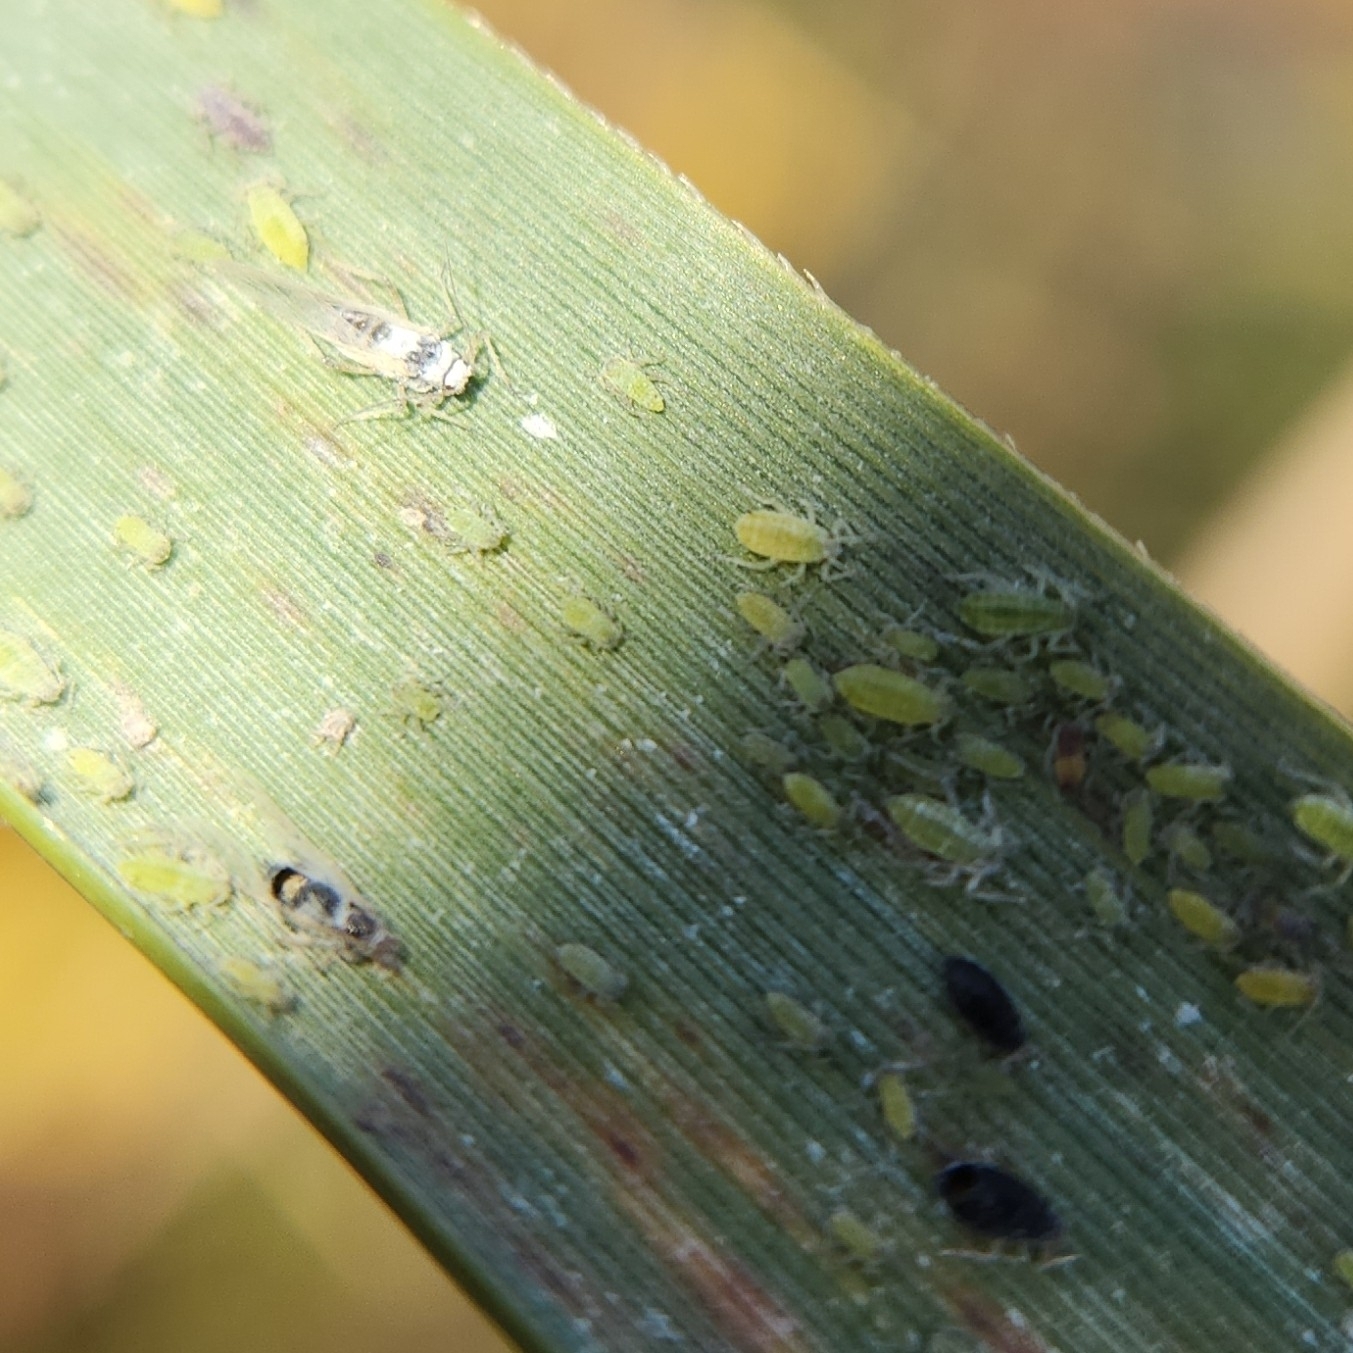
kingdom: Animalia
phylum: Arthropoda
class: Insecta
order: Hemiptera
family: Aphididae
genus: Aphis
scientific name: Aphis gossypii
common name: Melon aphid
